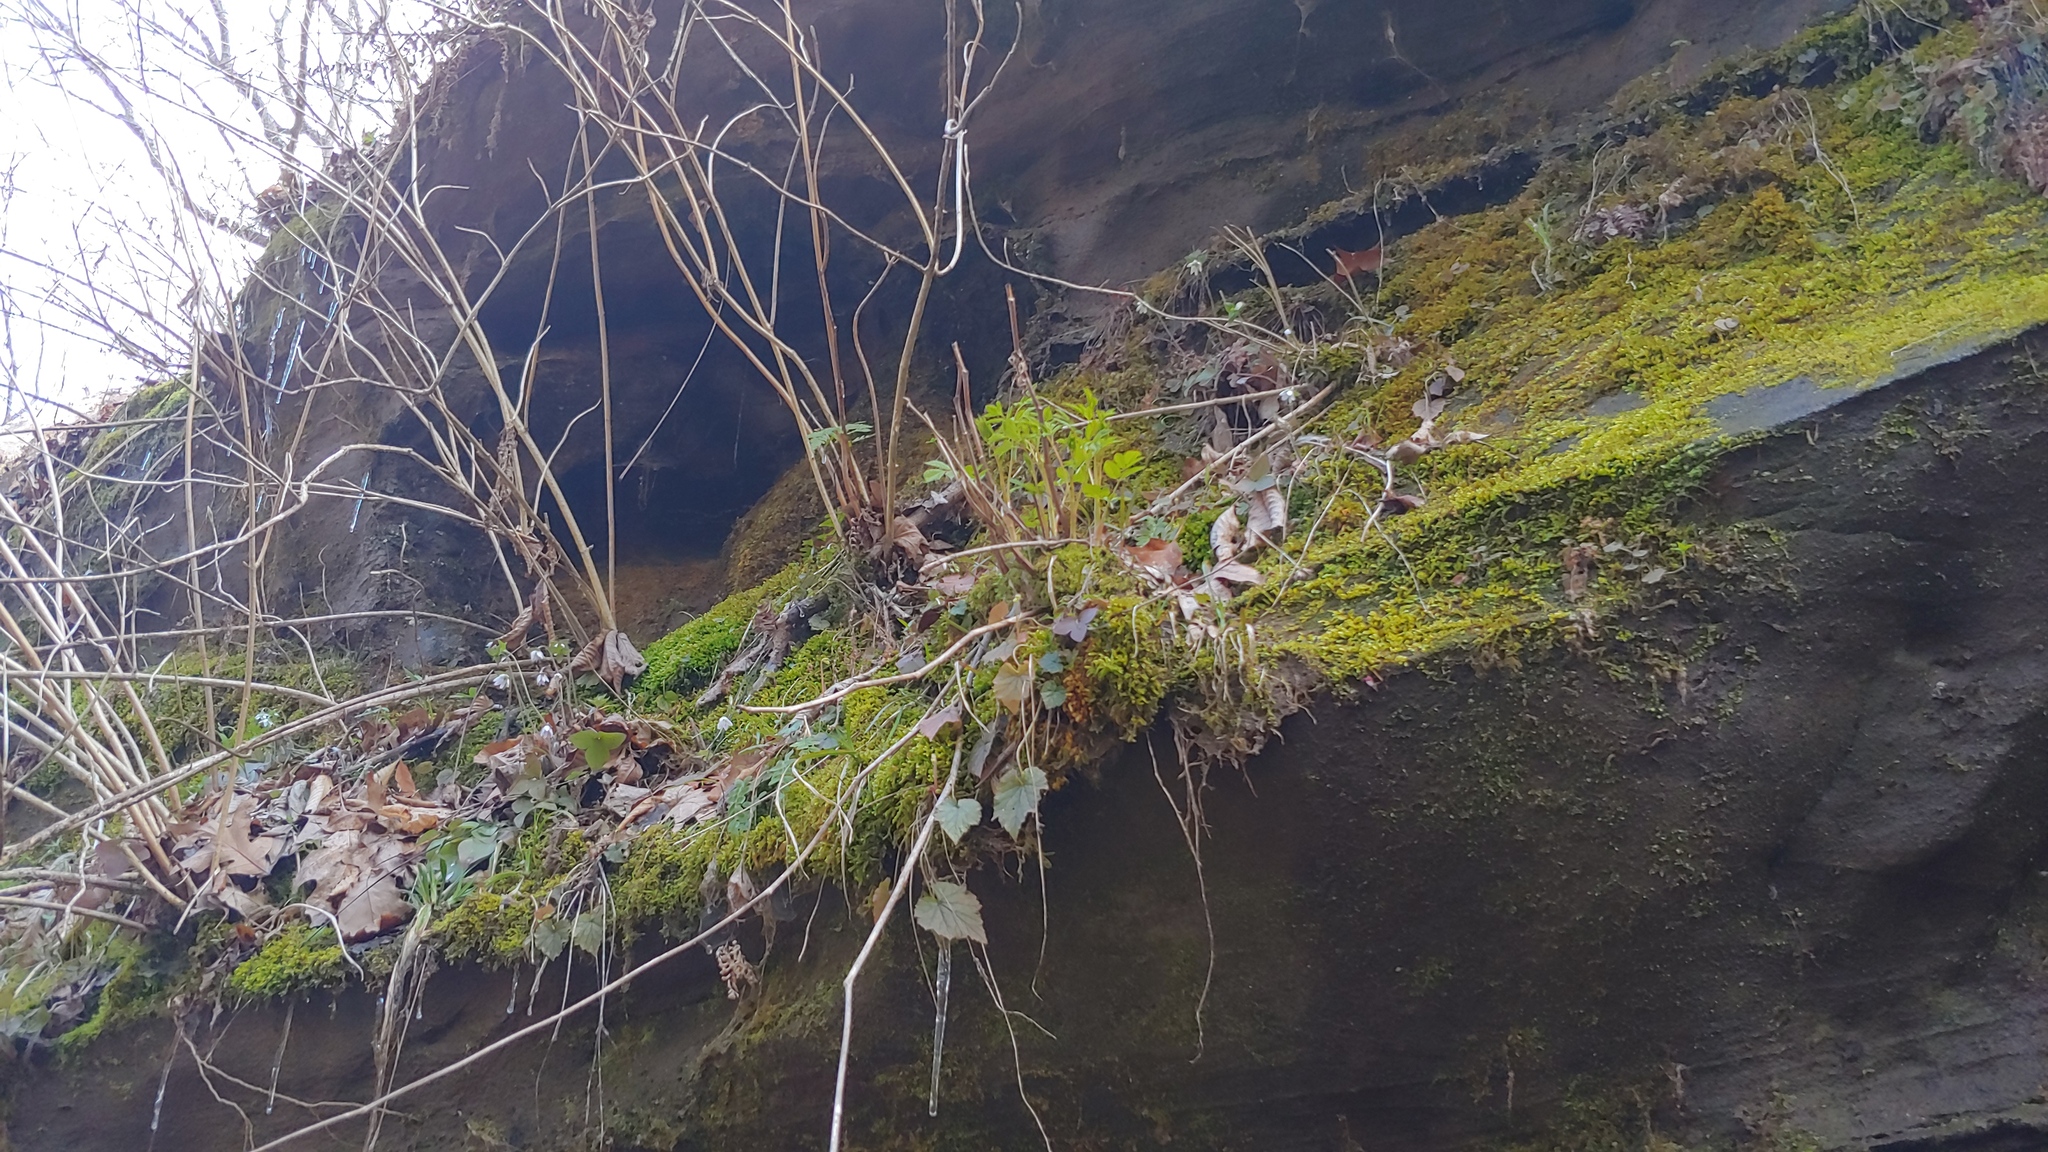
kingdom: Plantae
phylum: Tracheophyta
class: Magnoliopsida
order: Rosales
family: Rosaceae
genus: Aruncus
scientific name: Aruncus dioicus
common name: Buck's-beard
